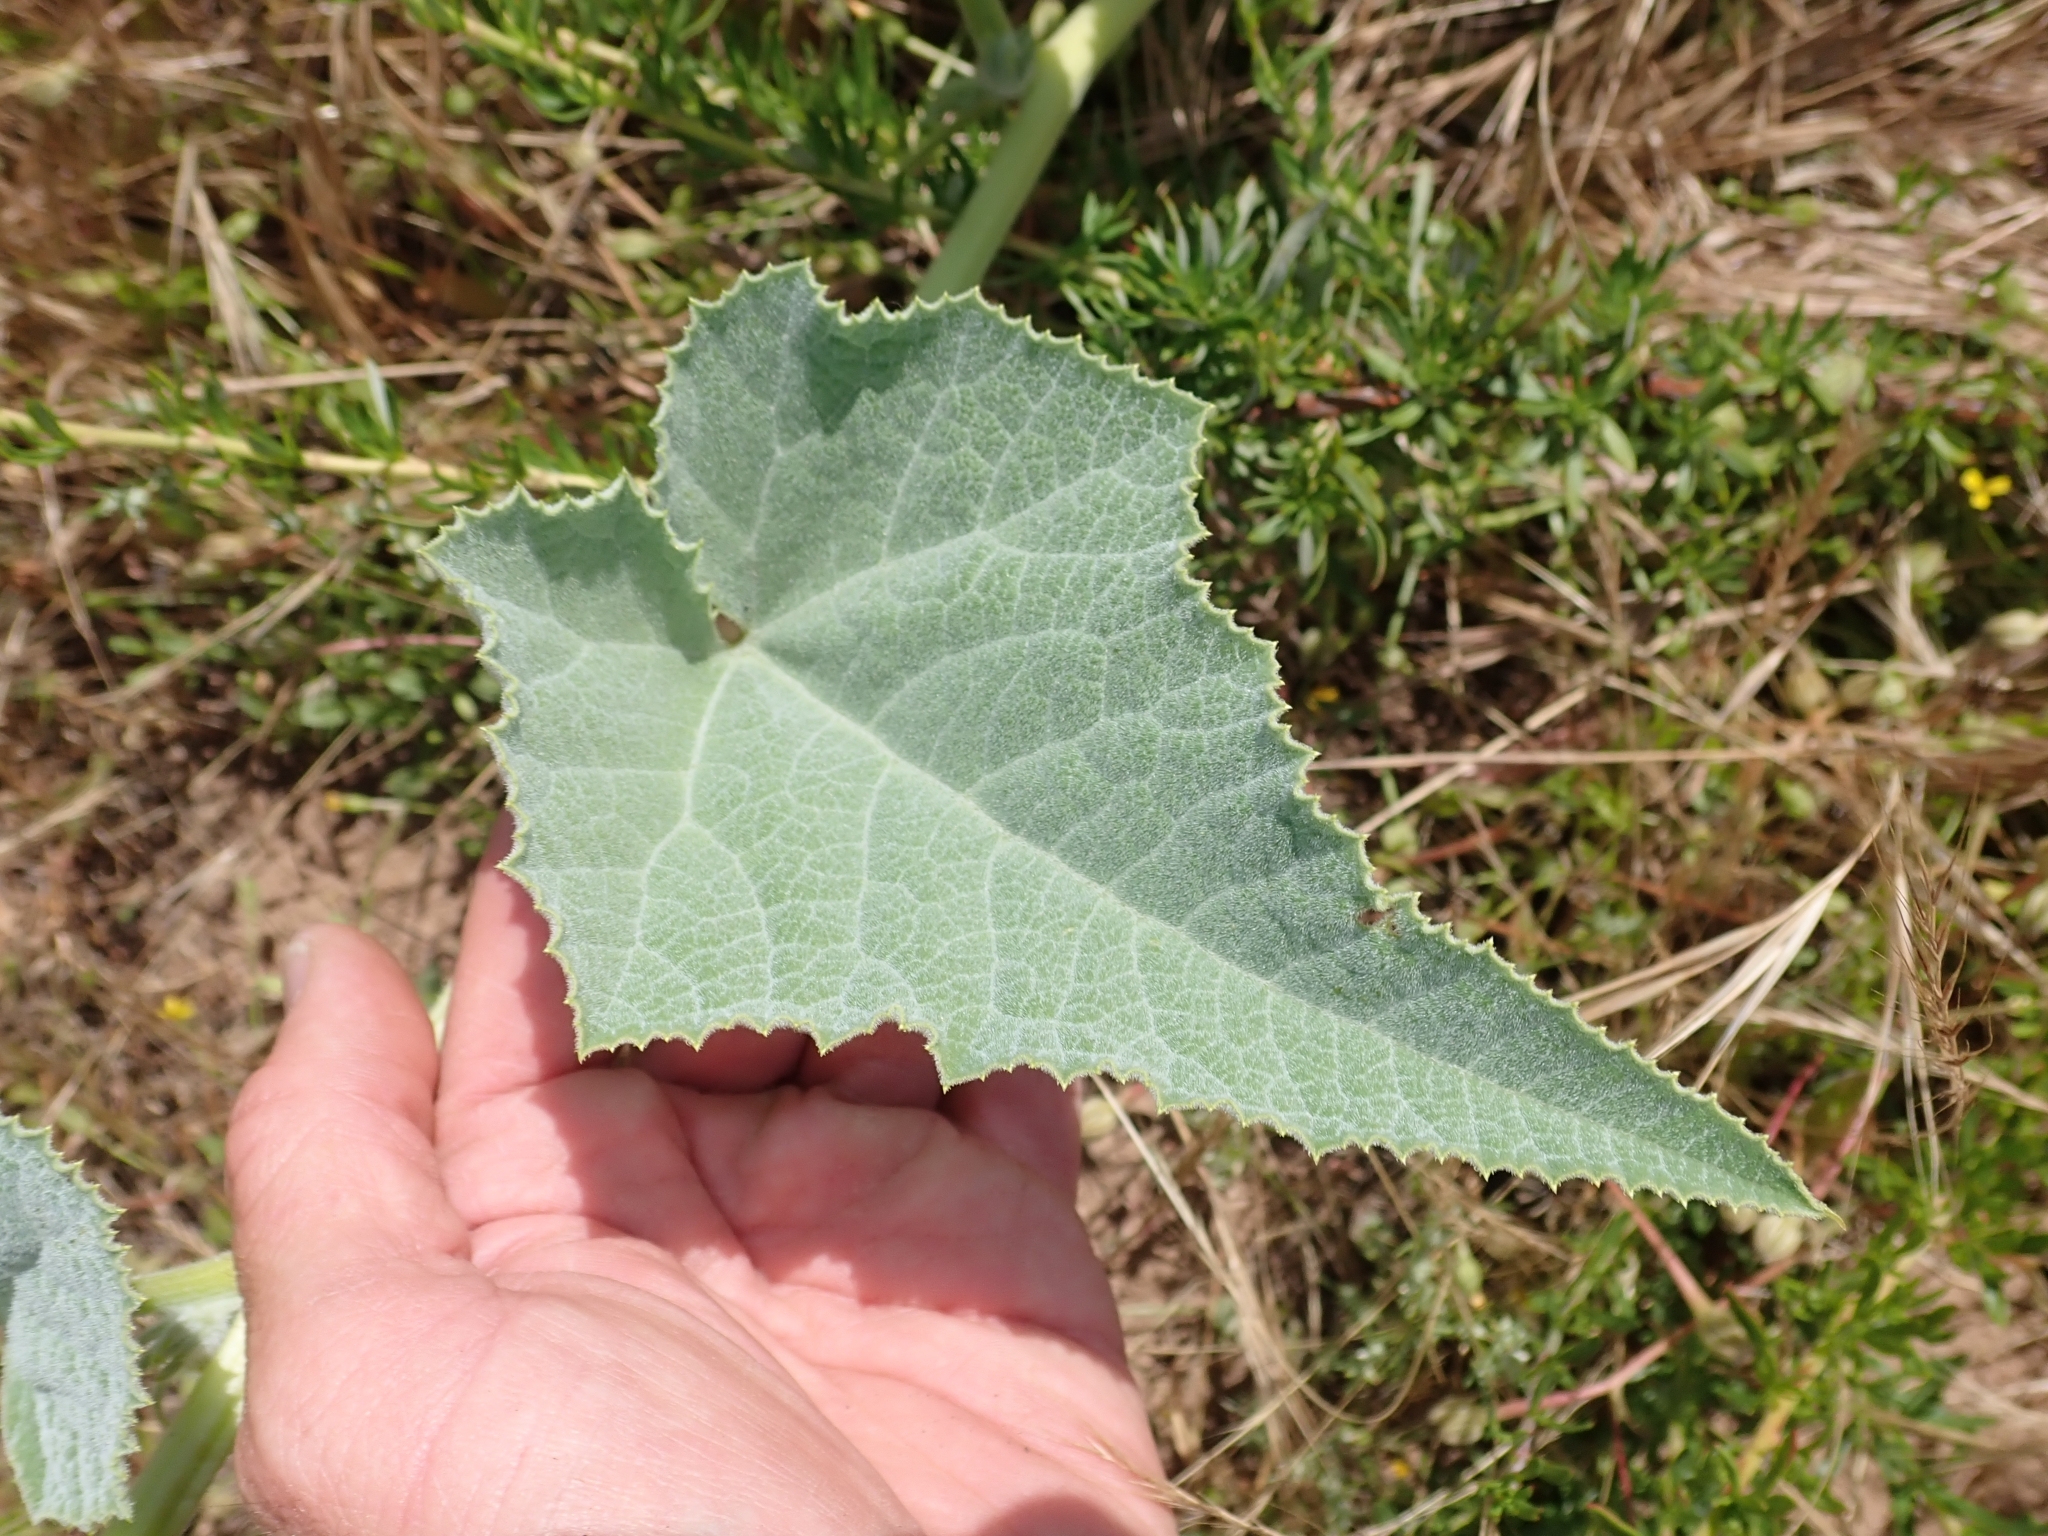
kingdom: Plantae
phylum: Tracheophyta
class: Magnoliopsida
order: Cucurbitales
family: Cucurbitaceae
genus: Cucurbita
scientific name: Cucurbita foetidissima
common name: Buffalo gourd
